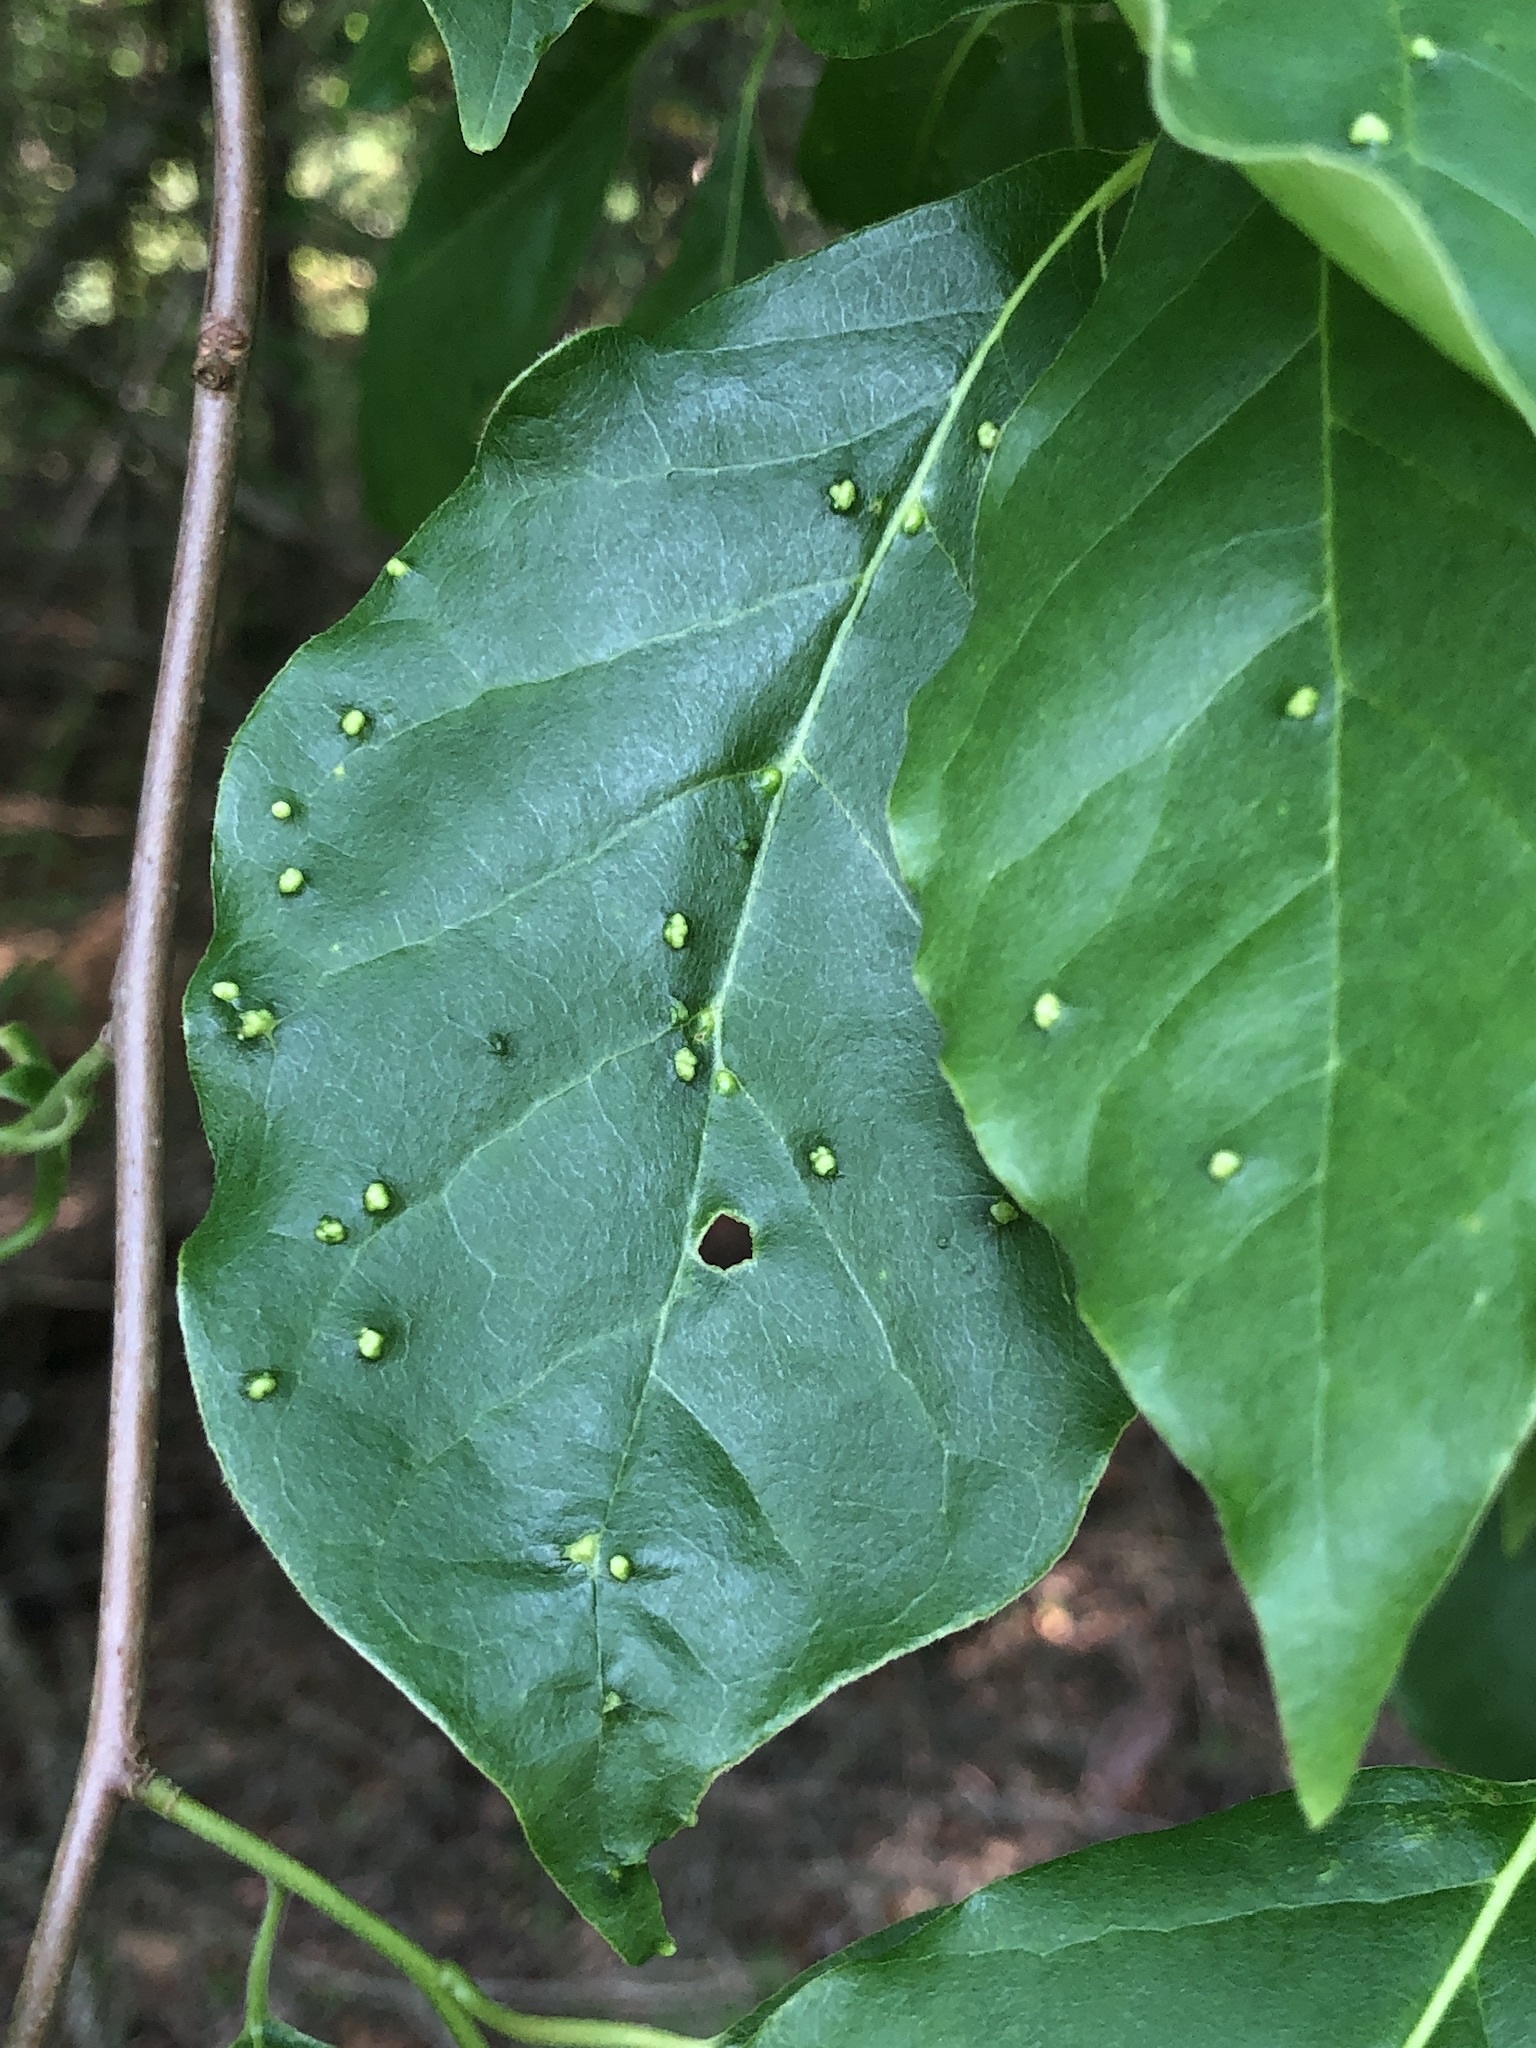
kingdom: Animalia
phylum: Arthropoda
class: Arachnida
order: Trombidiformes
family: Eriophyidae
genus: Aceria
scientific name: Aceria
